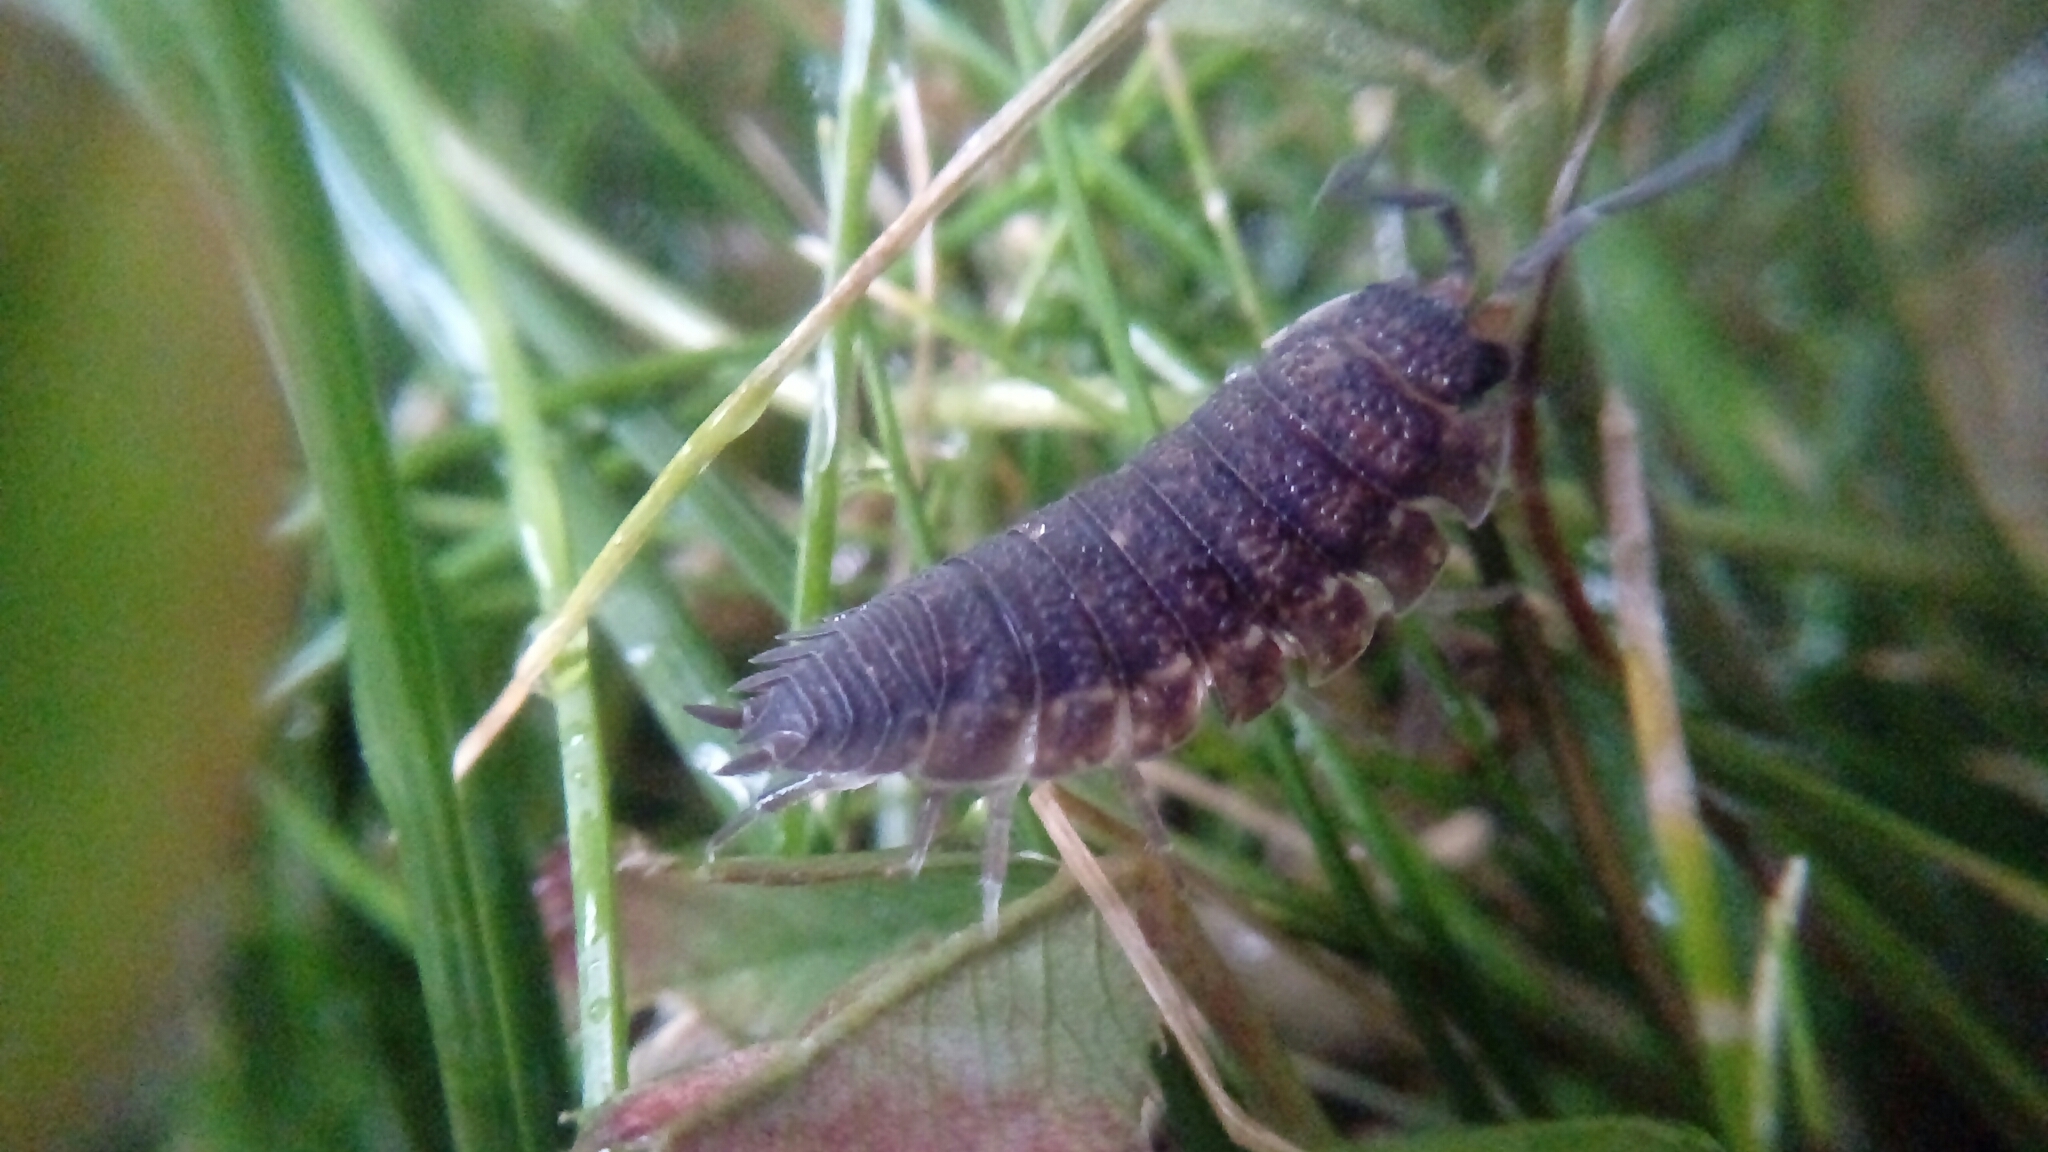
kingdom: Animalia
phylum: Arthropoda
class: Malacostraca
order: Isopoda
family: Porcellionidae
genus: Porcellio
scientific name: Porcellio scaber
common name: Common rough woodlouse
